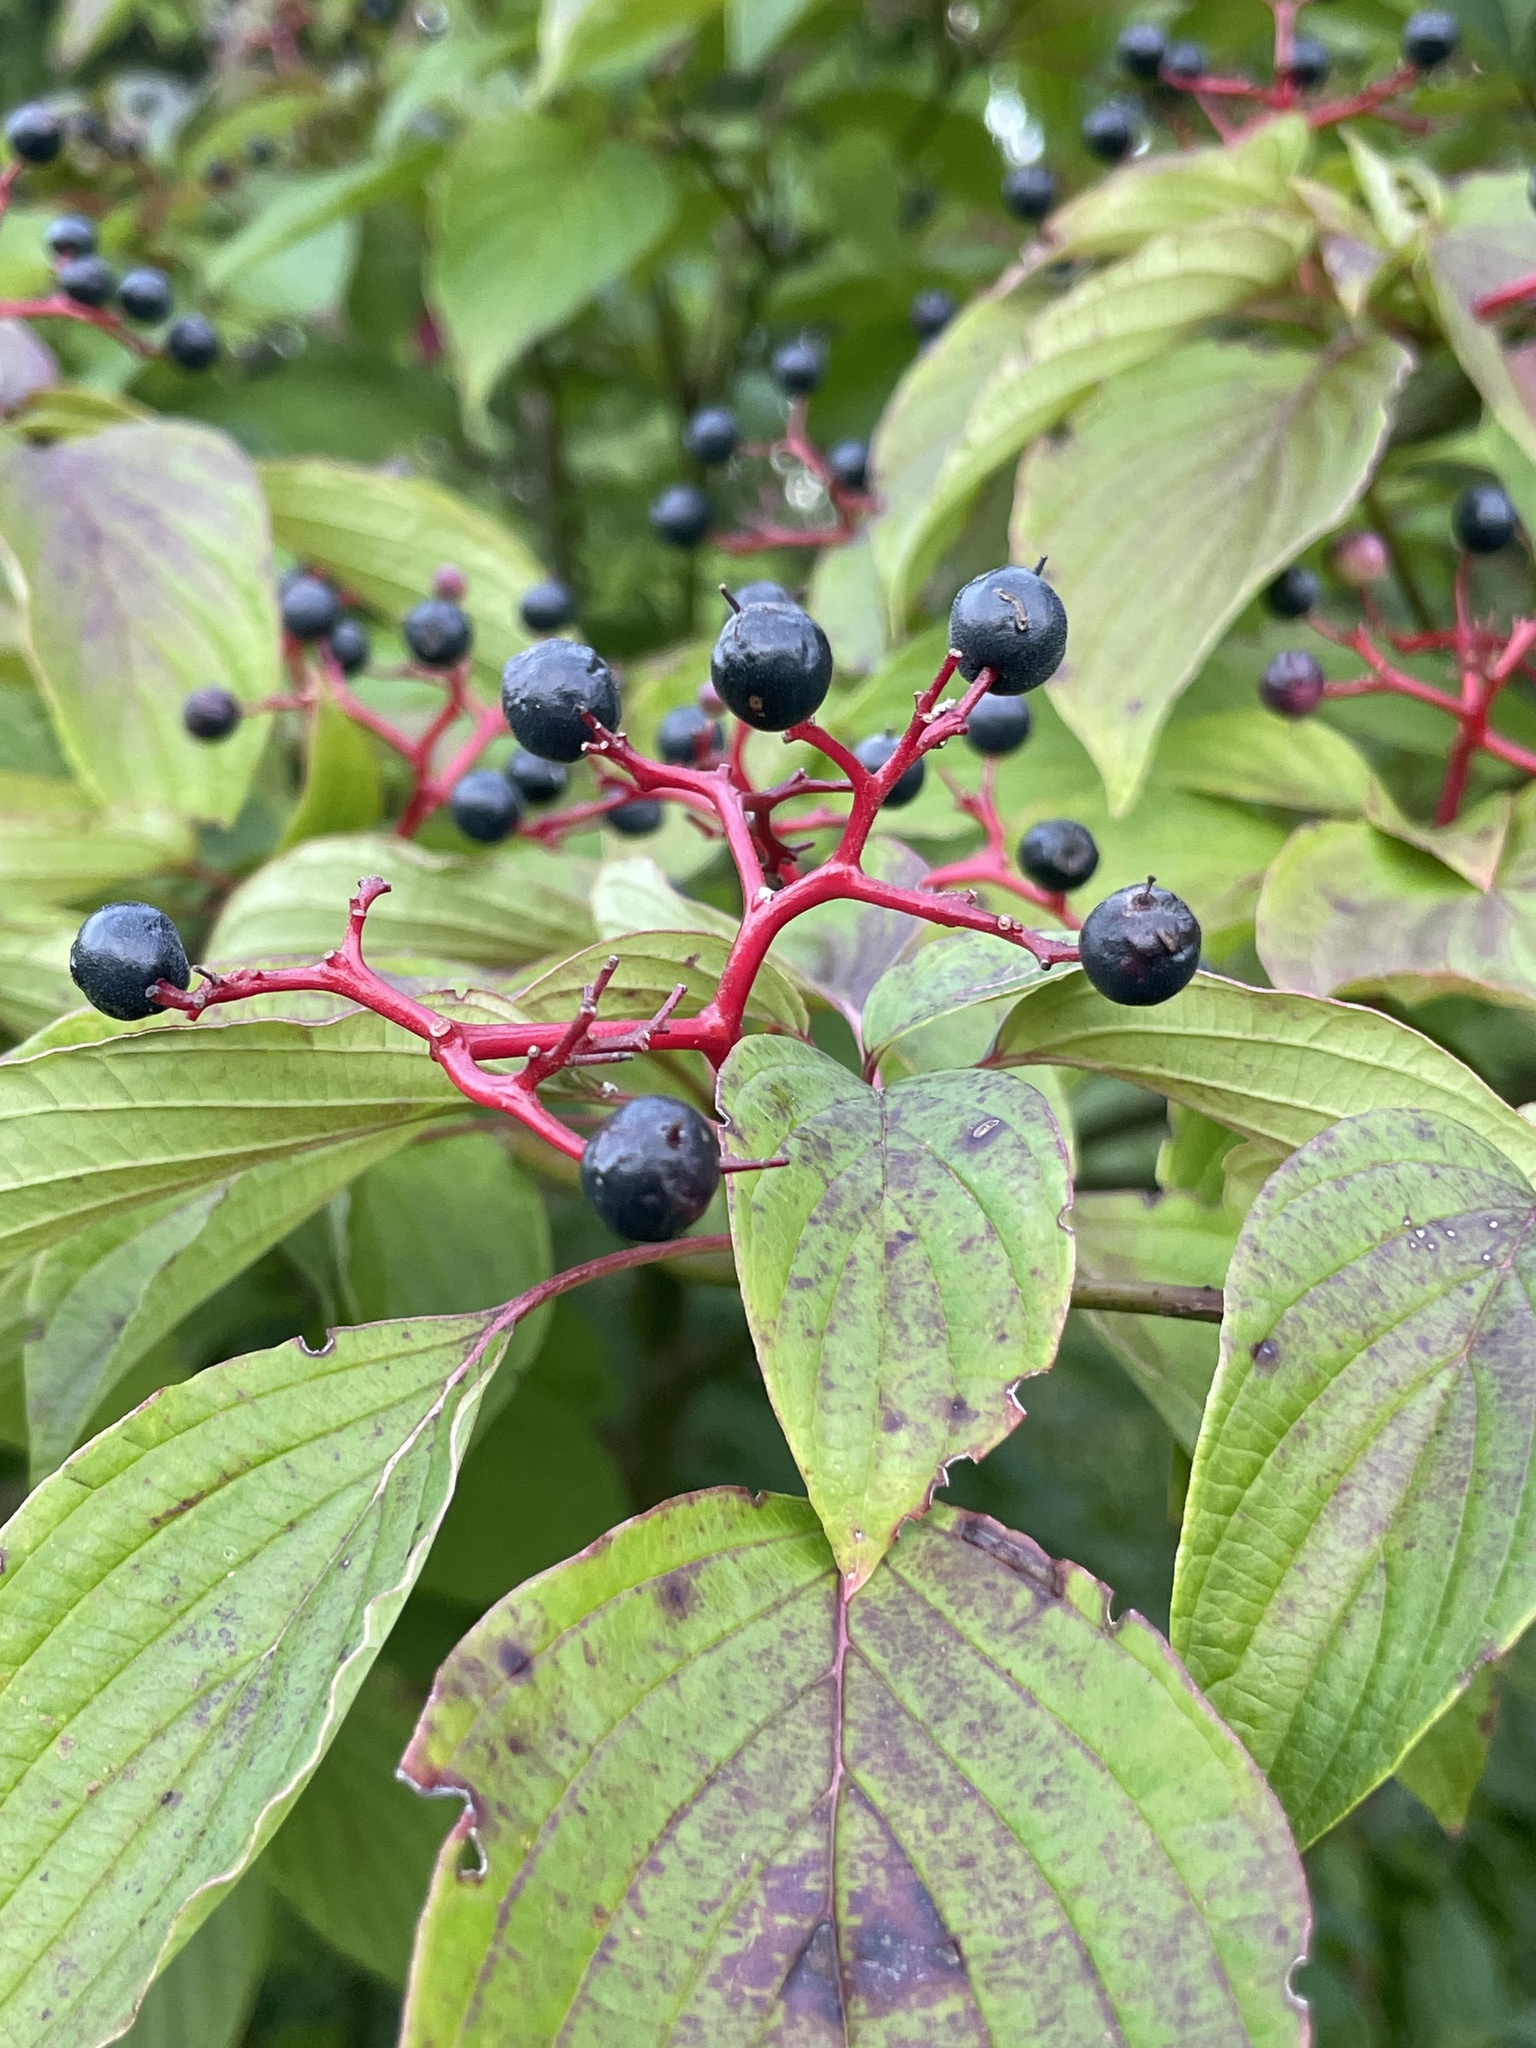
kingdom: Plantae
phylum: Tracheophyta
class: Magnoliopsida
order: Cornales
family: Cornaceae
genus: Cornus
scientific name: Cornus alternifolia
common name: Pagoda dogwood
